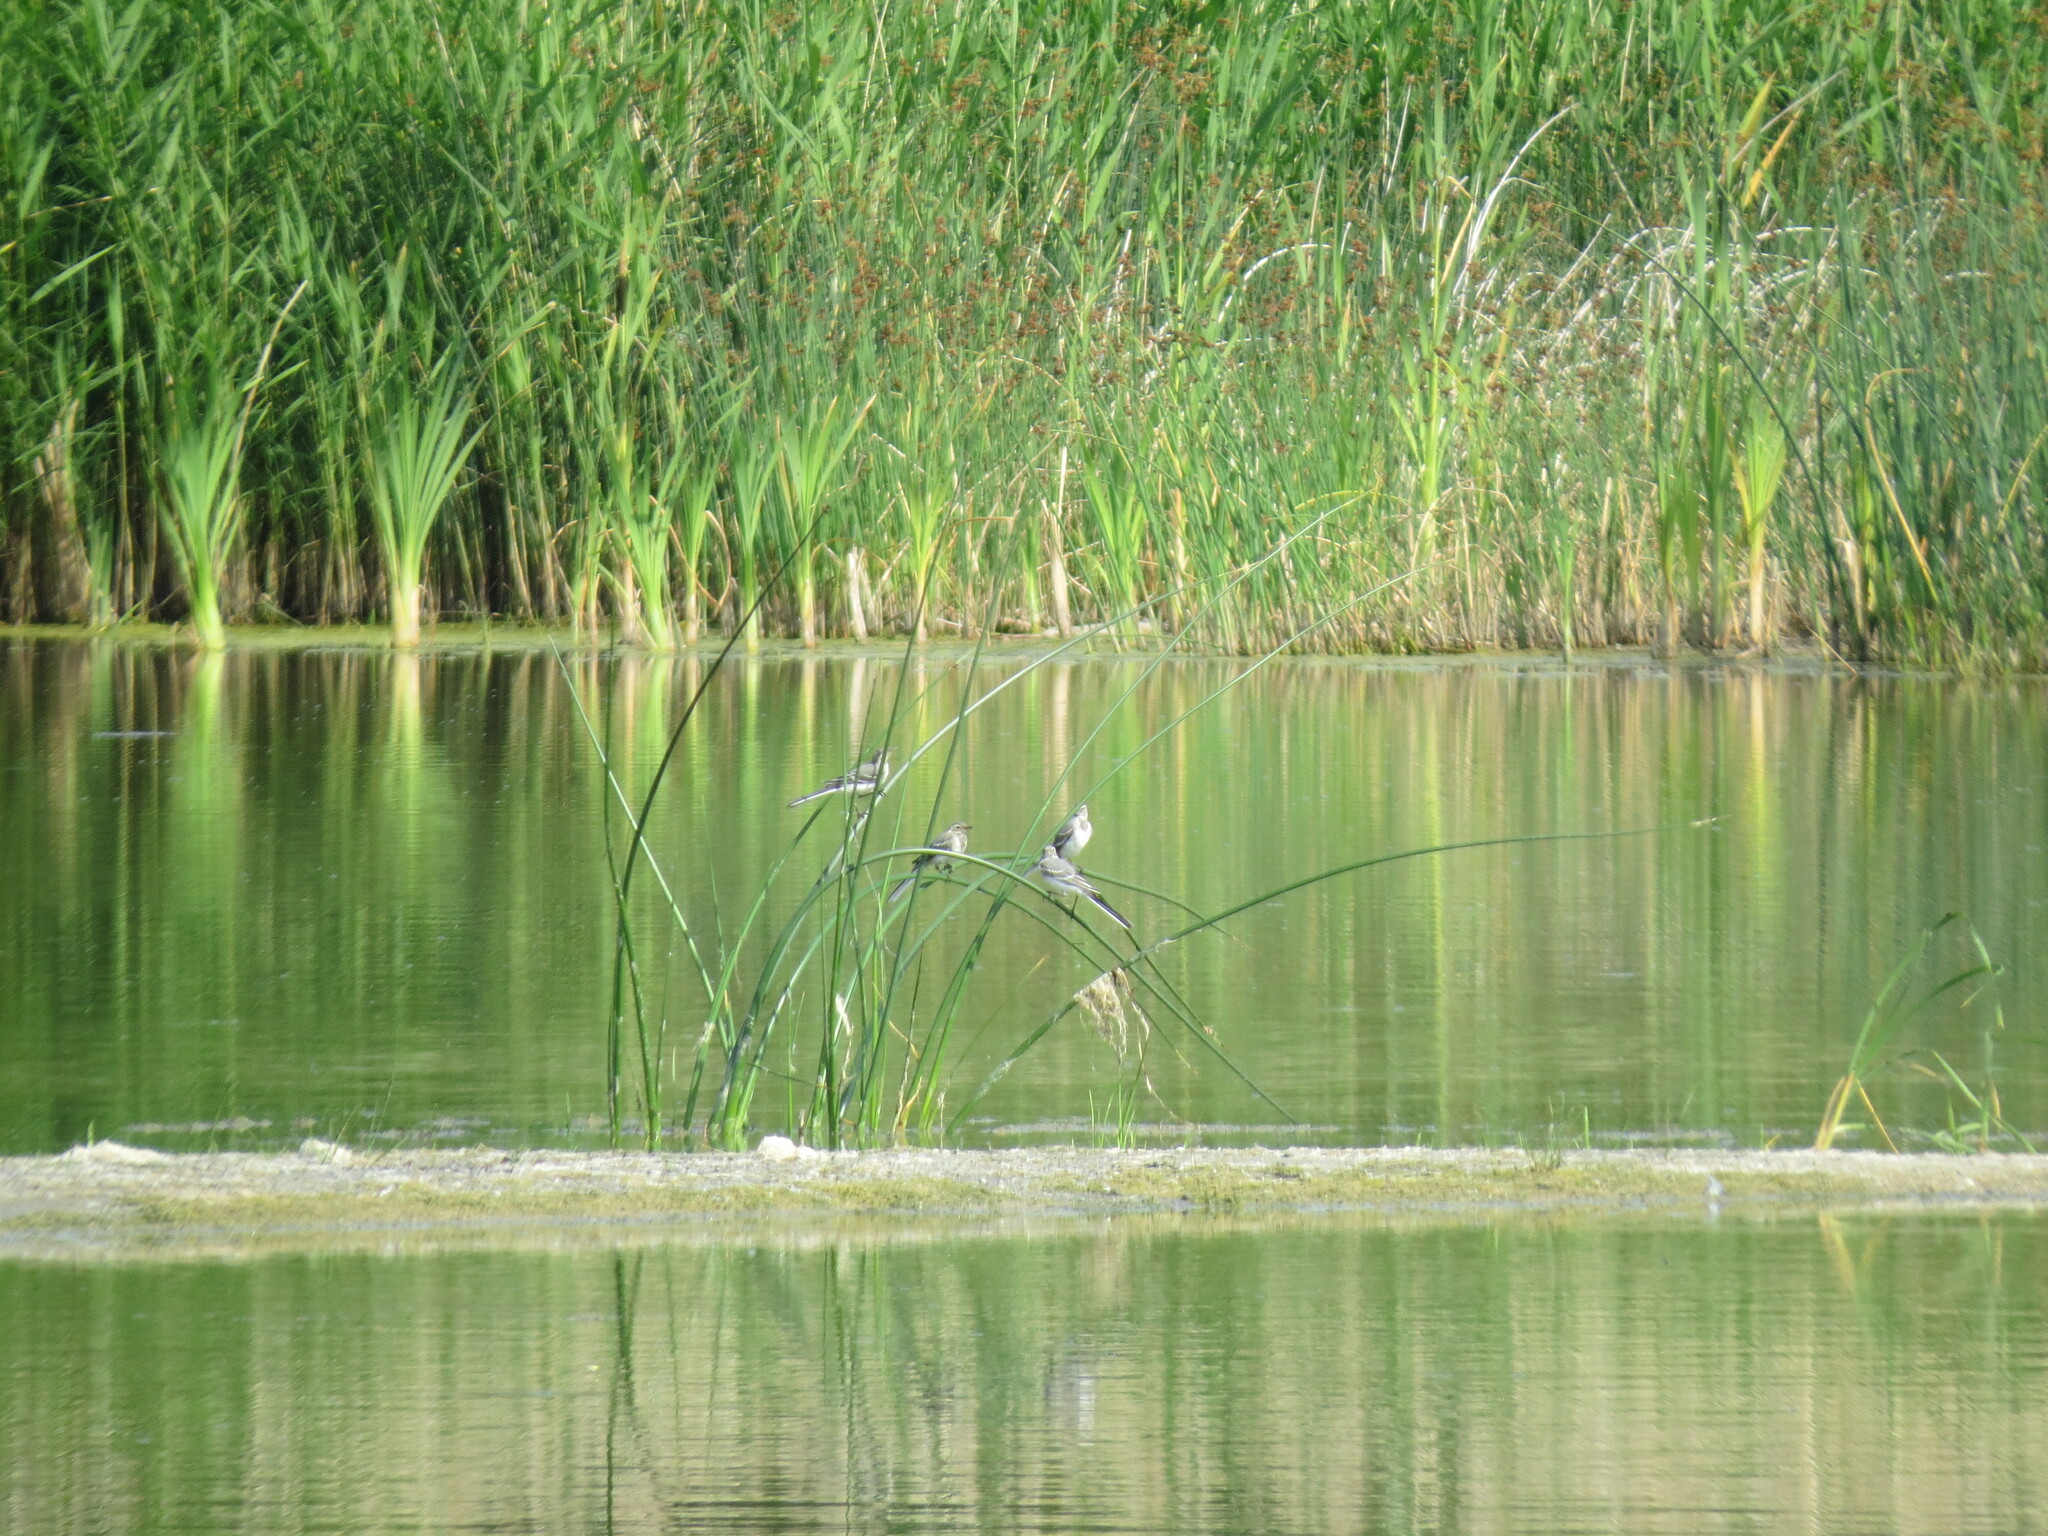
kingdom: Animalia
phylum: Chordata
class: Aves
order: Passeriformes
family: Motacillidae
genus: Motacilla
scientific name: Motacilla alba
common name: White wagtail
